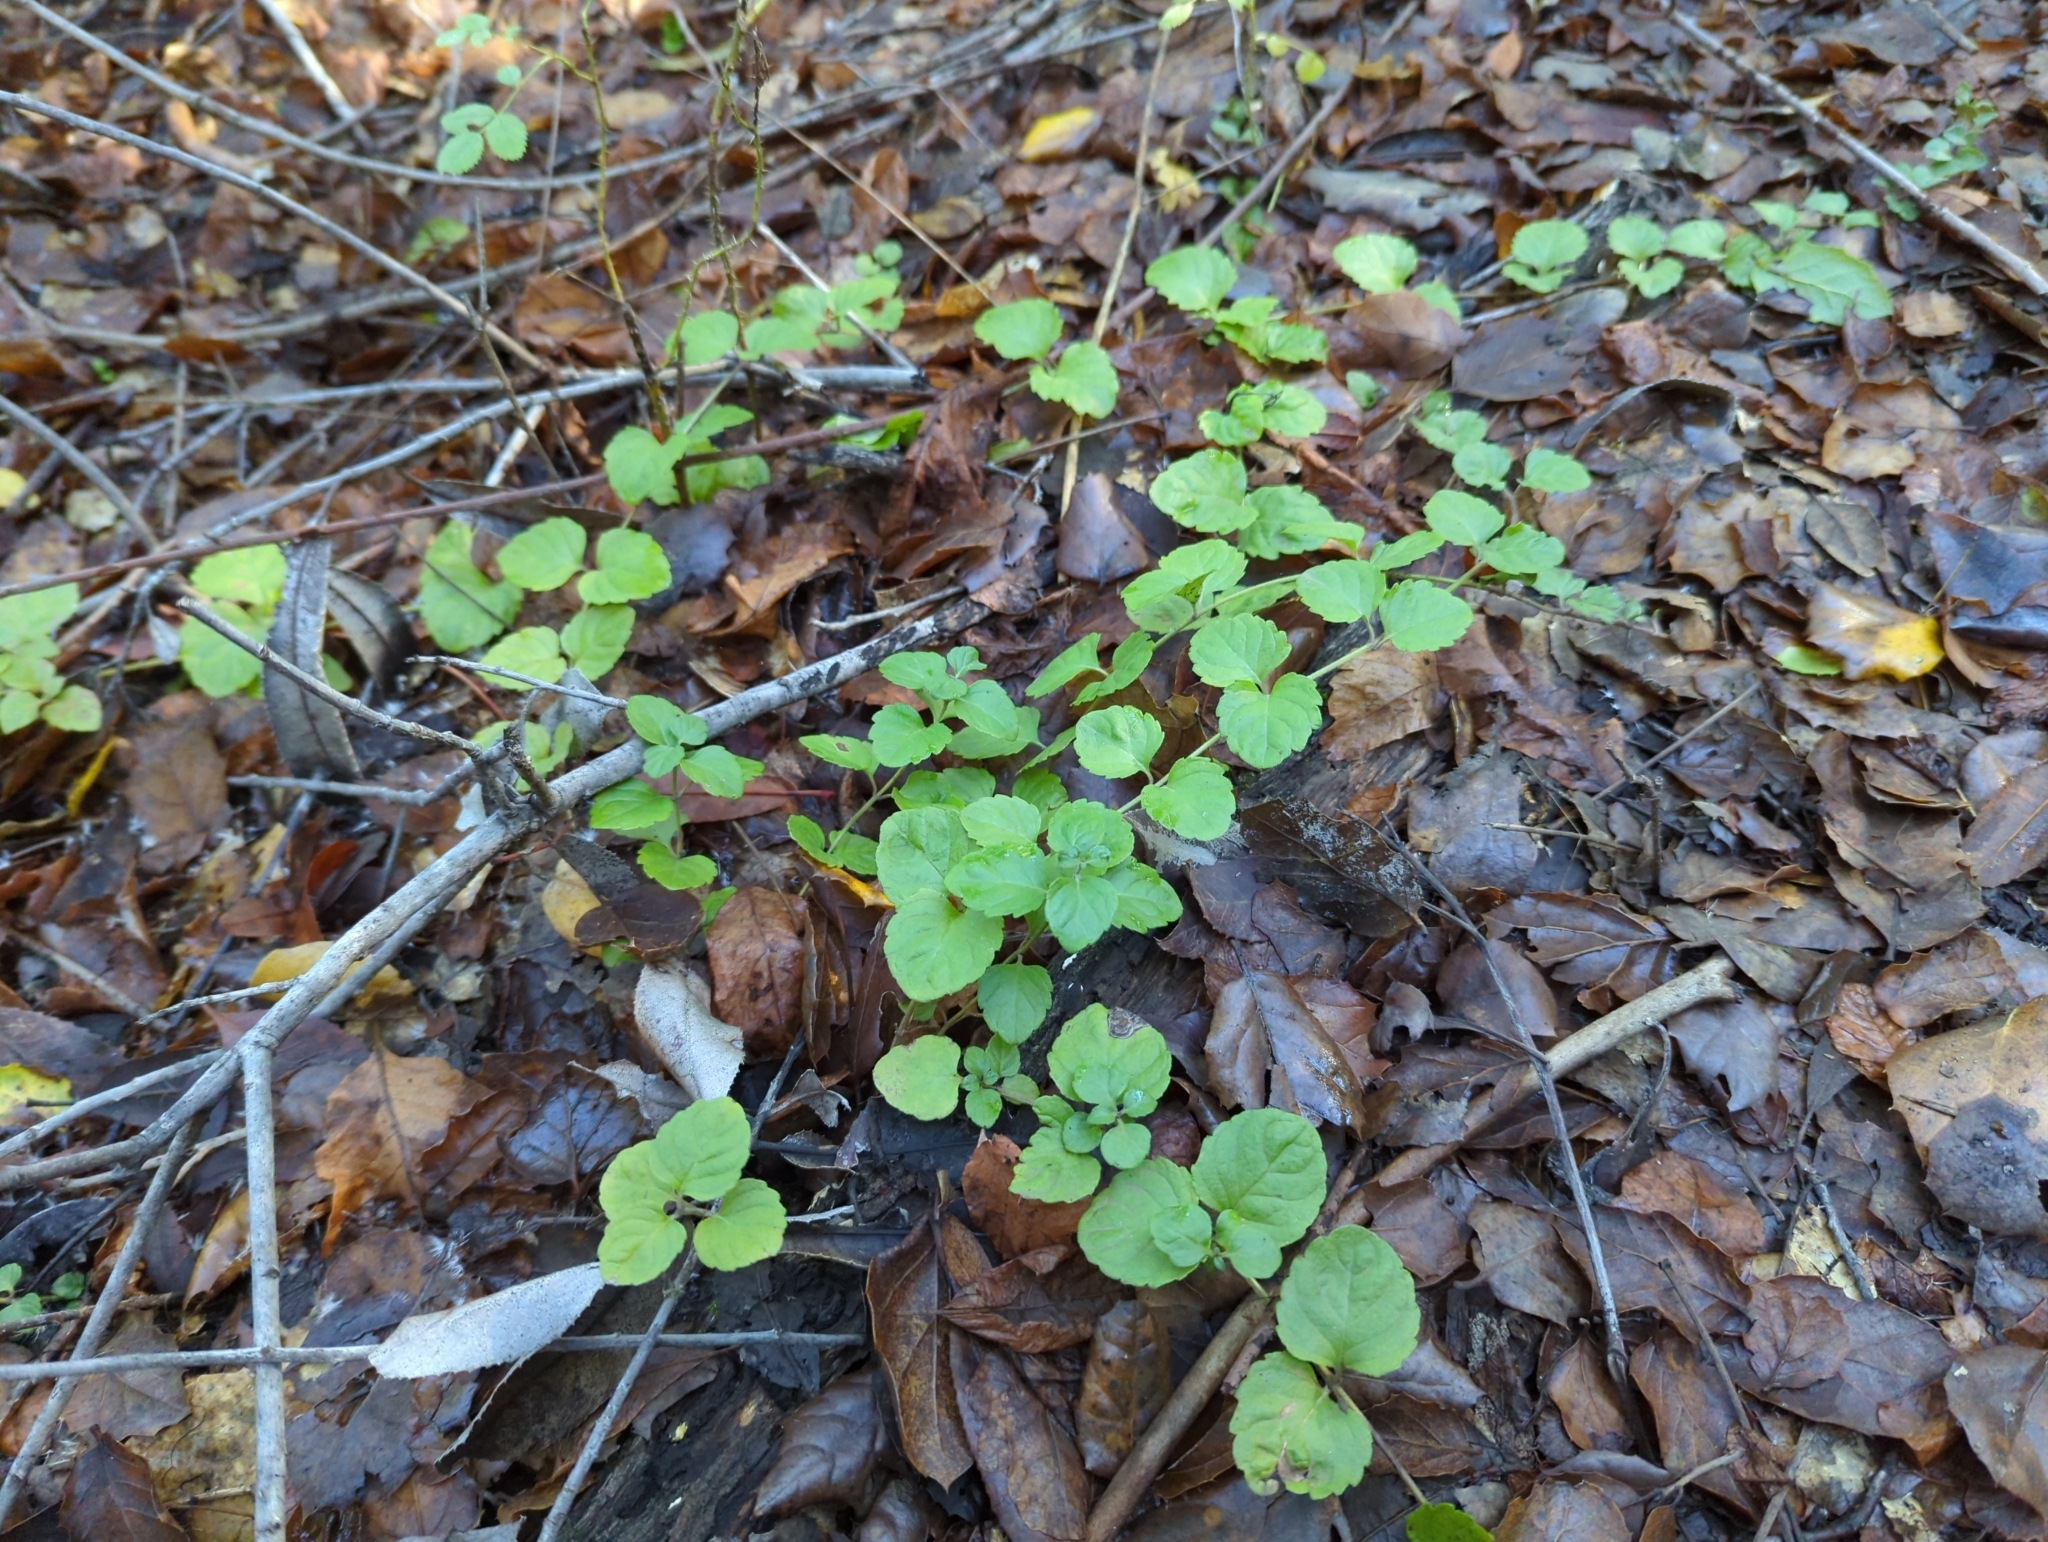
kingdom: Plantae
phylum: Tracheophyta
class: Magnoliopsida
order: Lamiales
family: Lamiaceae
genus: Micromeria
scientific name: Micromeria douglasii
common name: Yerba buena
